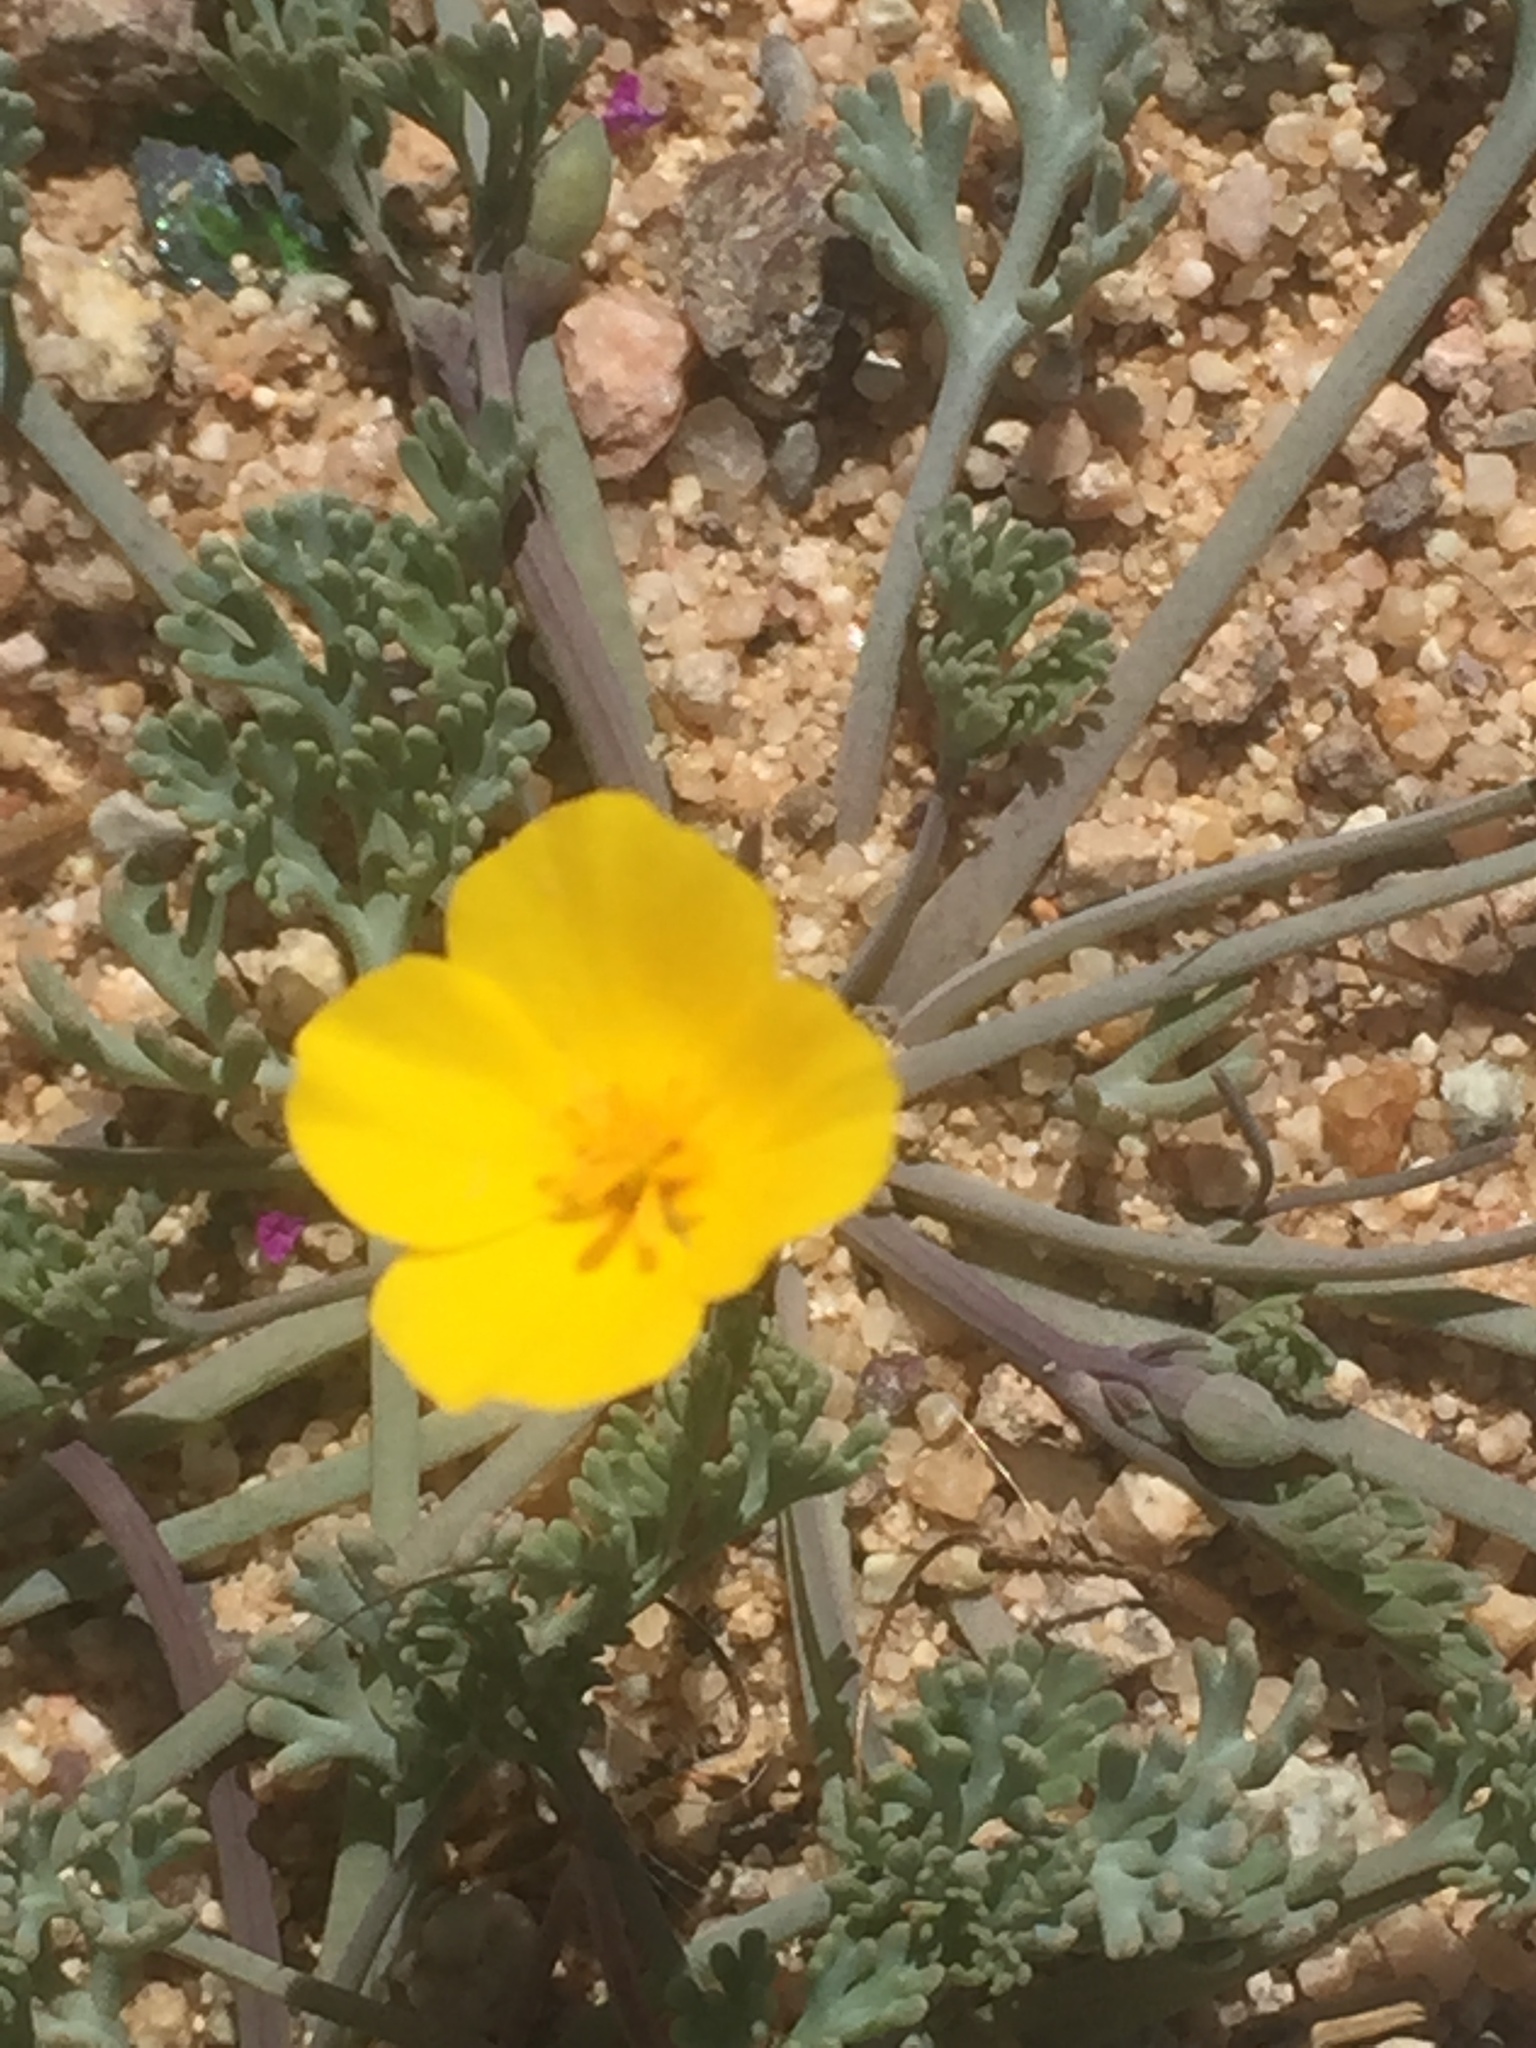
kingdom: Plantae
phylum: Tracheophyta
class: Magnoliopsida
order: Ranunculales
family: Papaveraceae
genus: Eschscholzia
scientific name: Eschscholzia minutiflora
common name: Small-flower california-poppy
